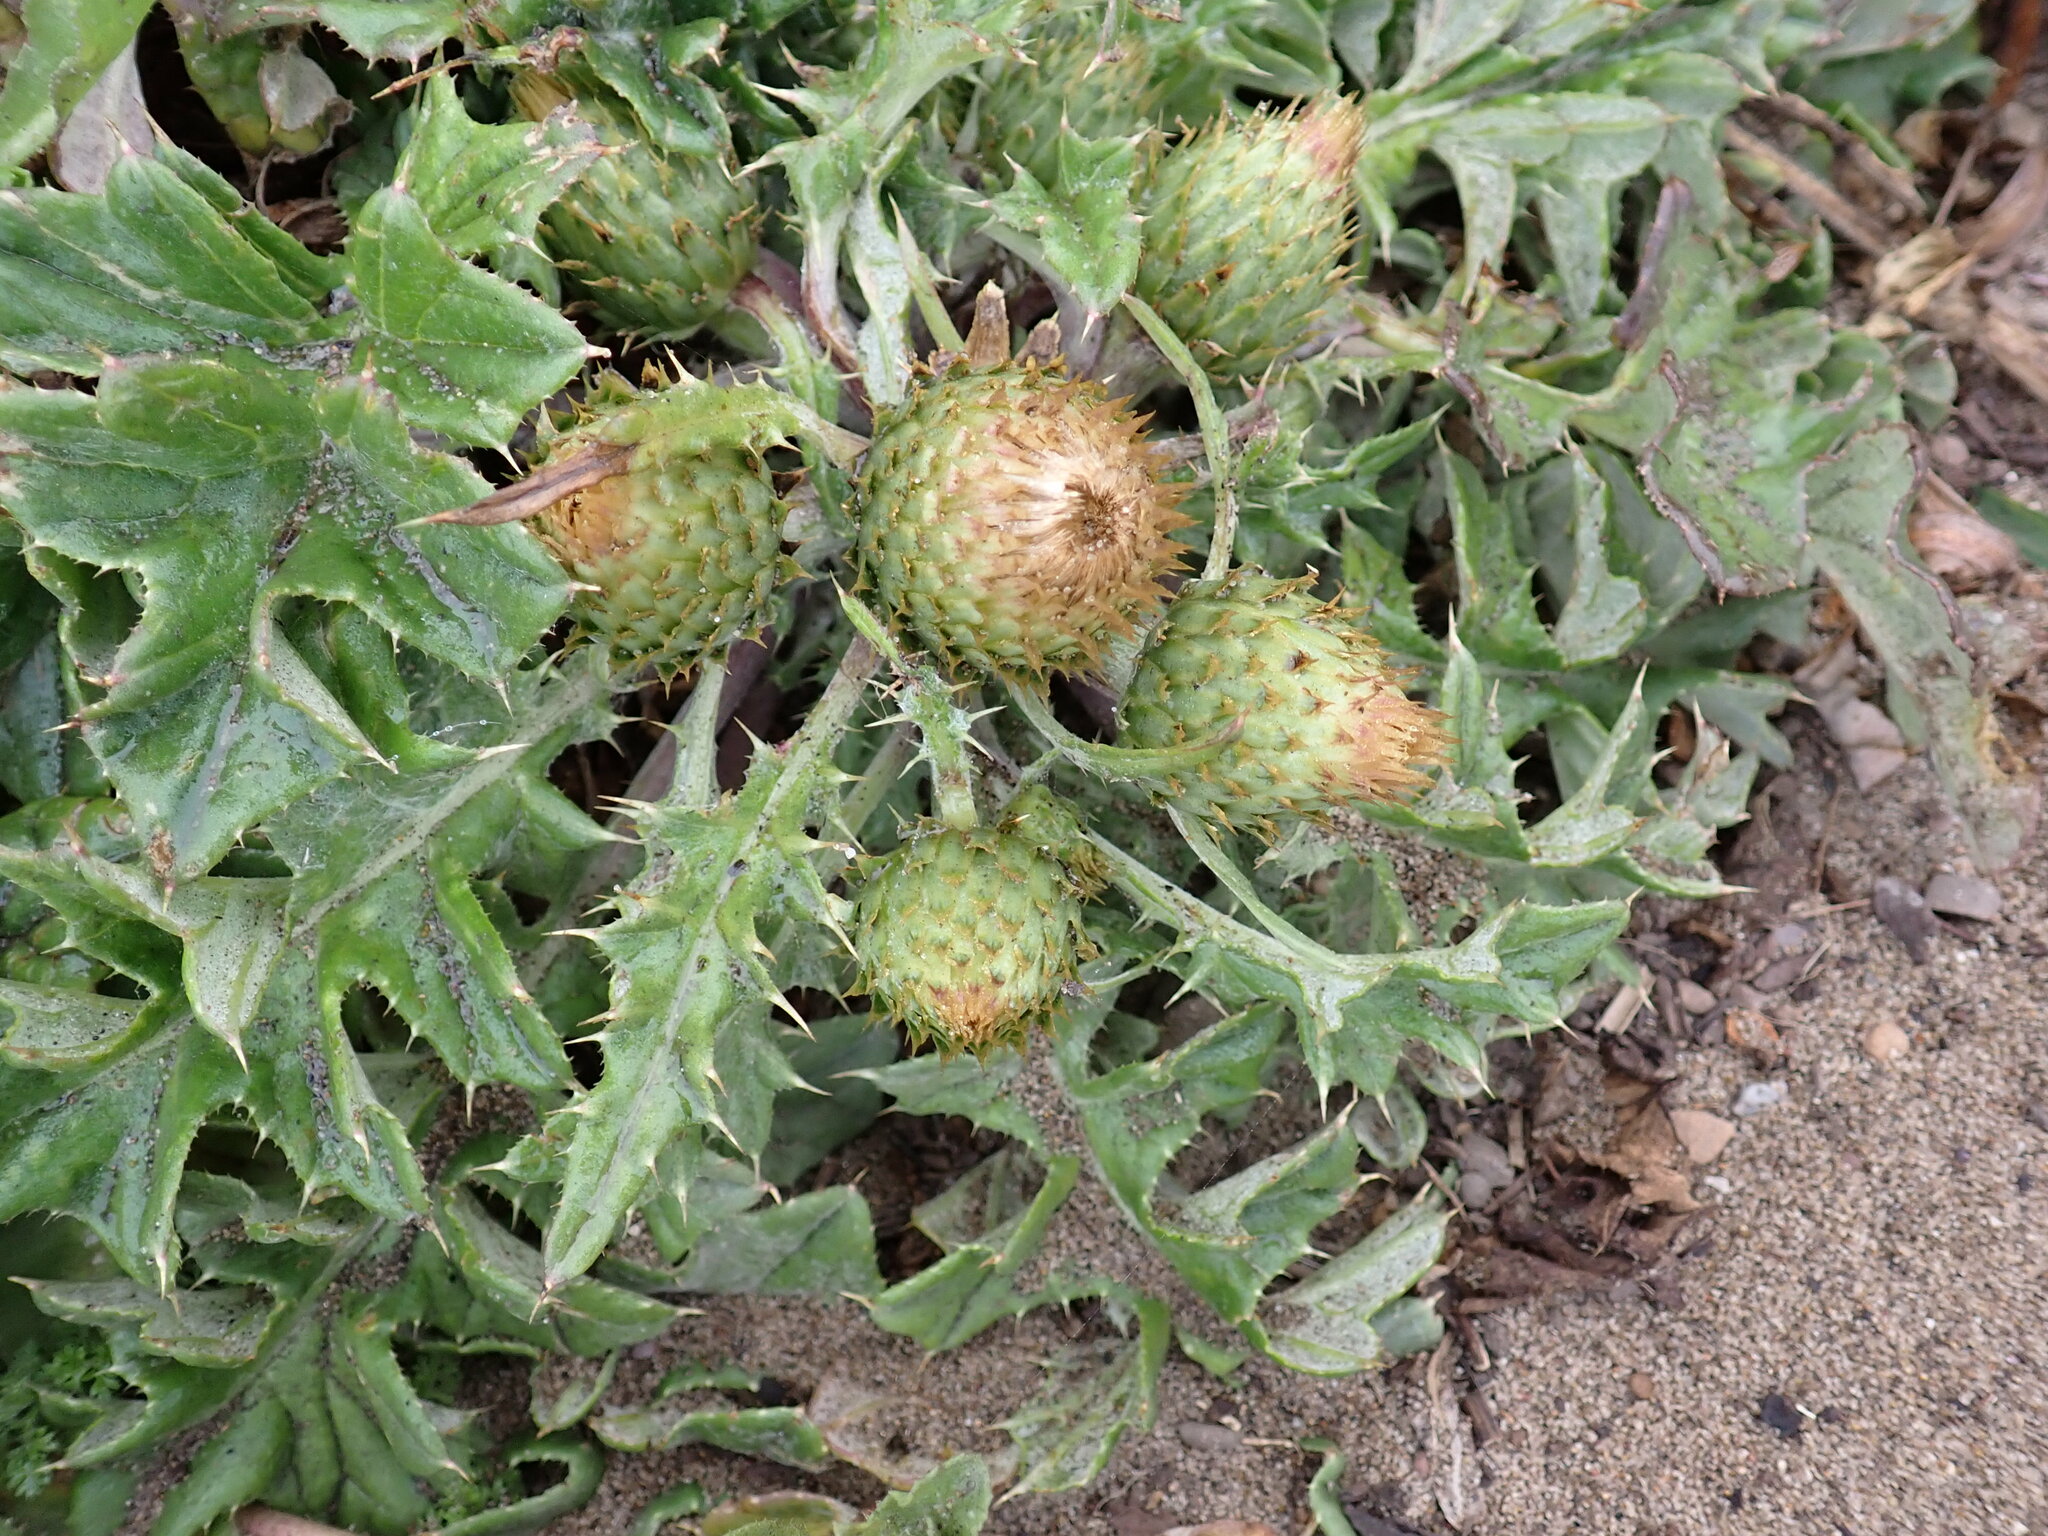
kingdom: Plantae
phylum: Tracheophyta
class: Magnoliopsida
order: Asterales
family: Asteraceae
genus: Cirsium
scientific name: Cirsium quercetorum
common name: Alameda county thistle
